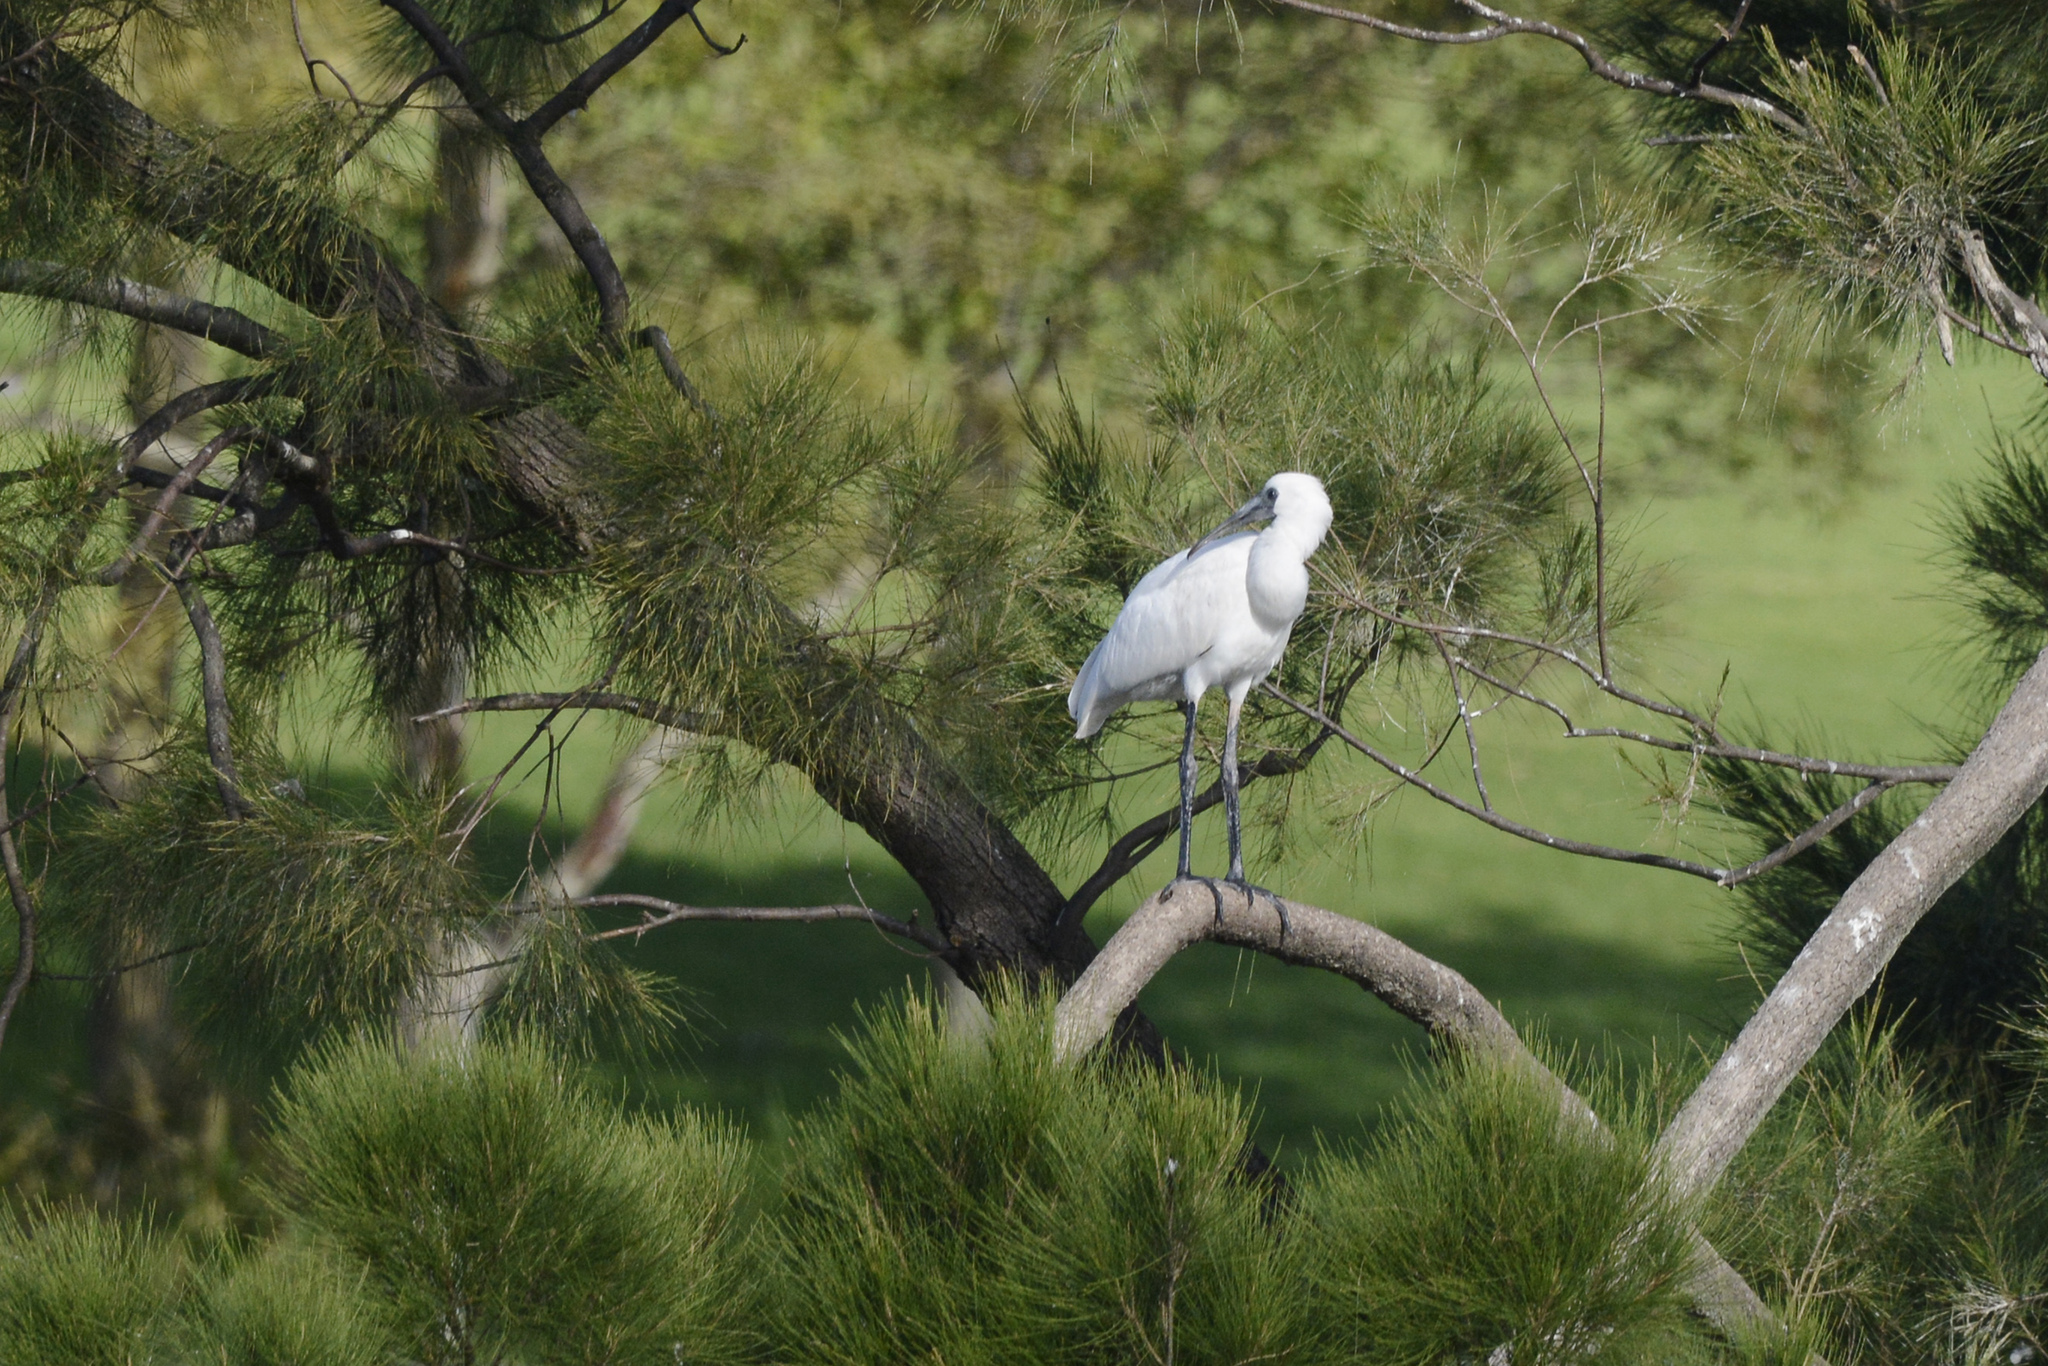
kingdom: Animalia
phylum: Chordata
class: Aves
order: Pelecaniformes
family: Threskiornithidae
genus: Platalea
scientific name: Platalea regia
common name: Royal spoonbill
